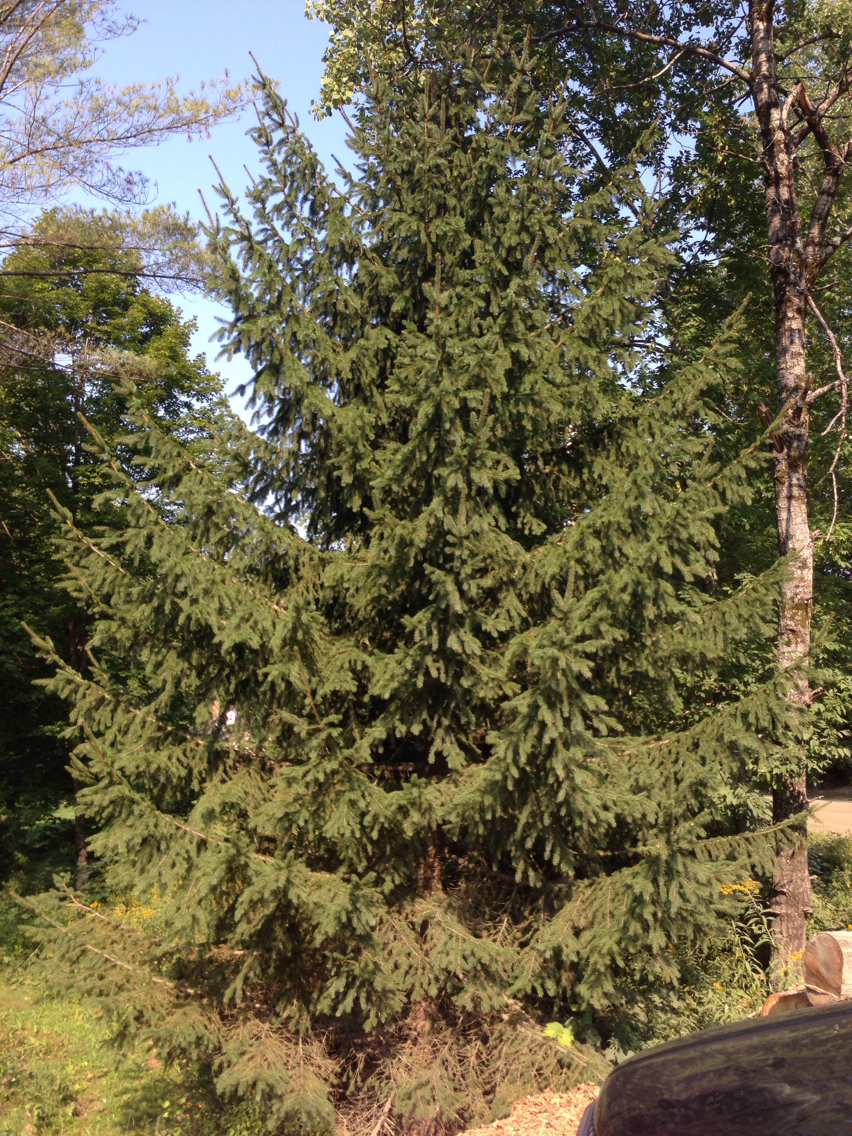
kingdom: Plantae
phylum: Tracheophyta
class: Pinopsida
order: Pinales
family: Pinaceae
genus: Picea
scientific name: Picea abies
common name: Norway spruce
